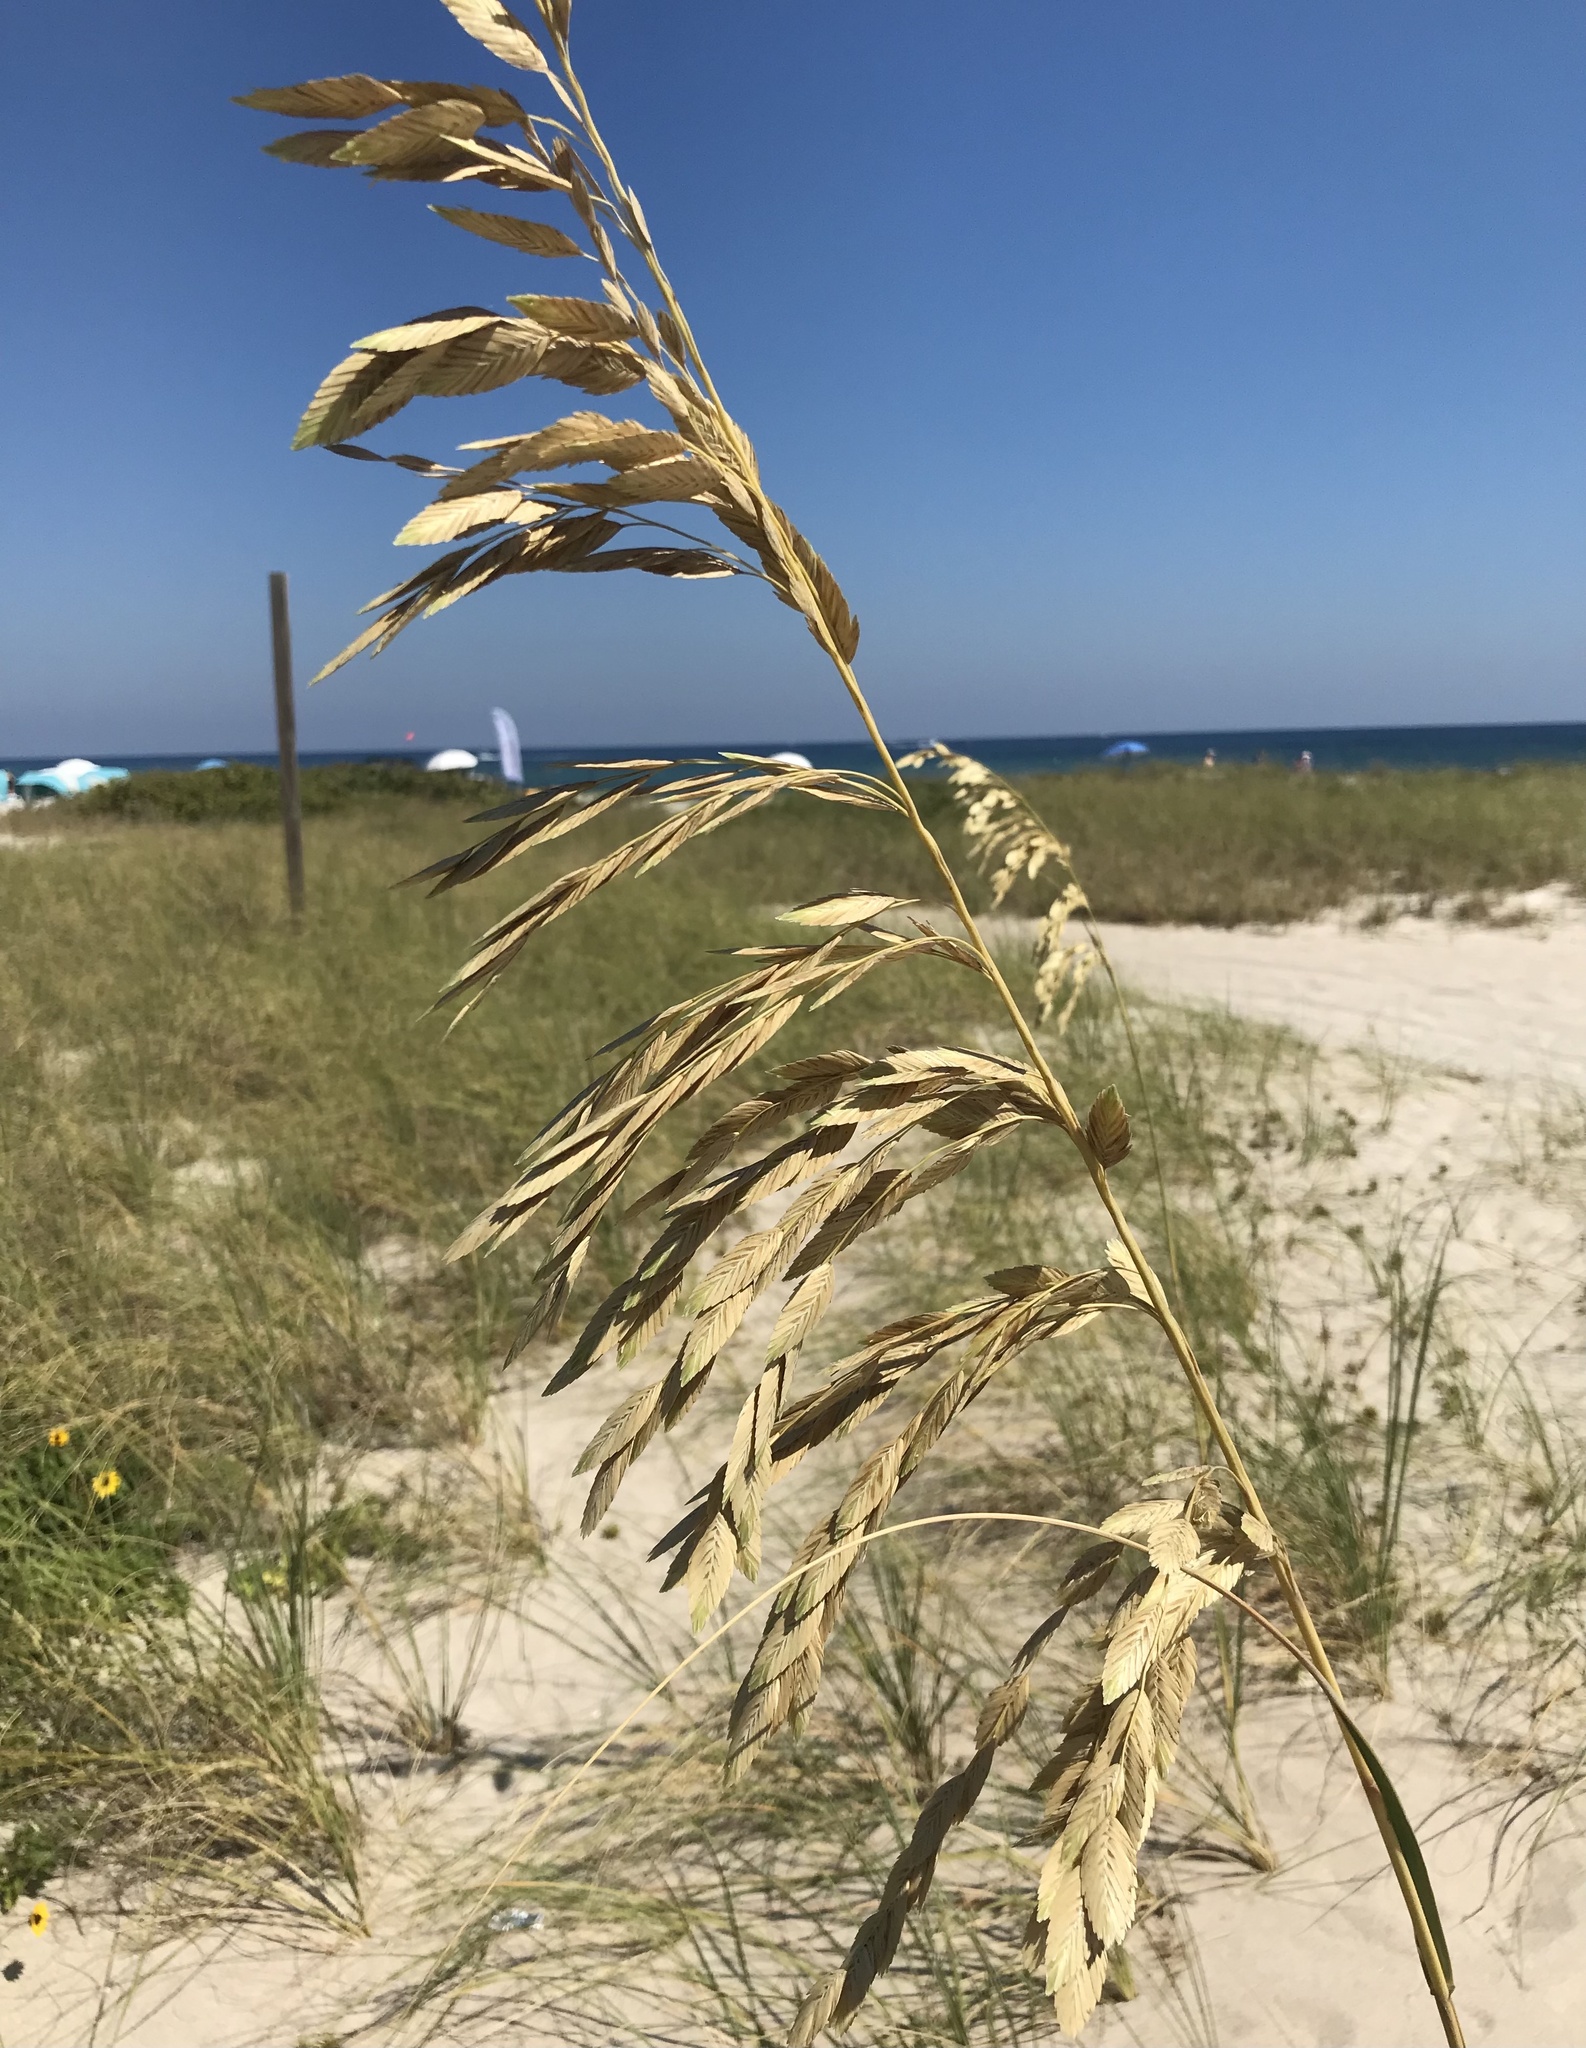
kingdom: Plantae
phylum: Tracheophyta
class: Liliopsida
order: Poales
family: Poaceae
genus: Uniola
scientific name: Uniola paniculata
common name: Seaside-oats
